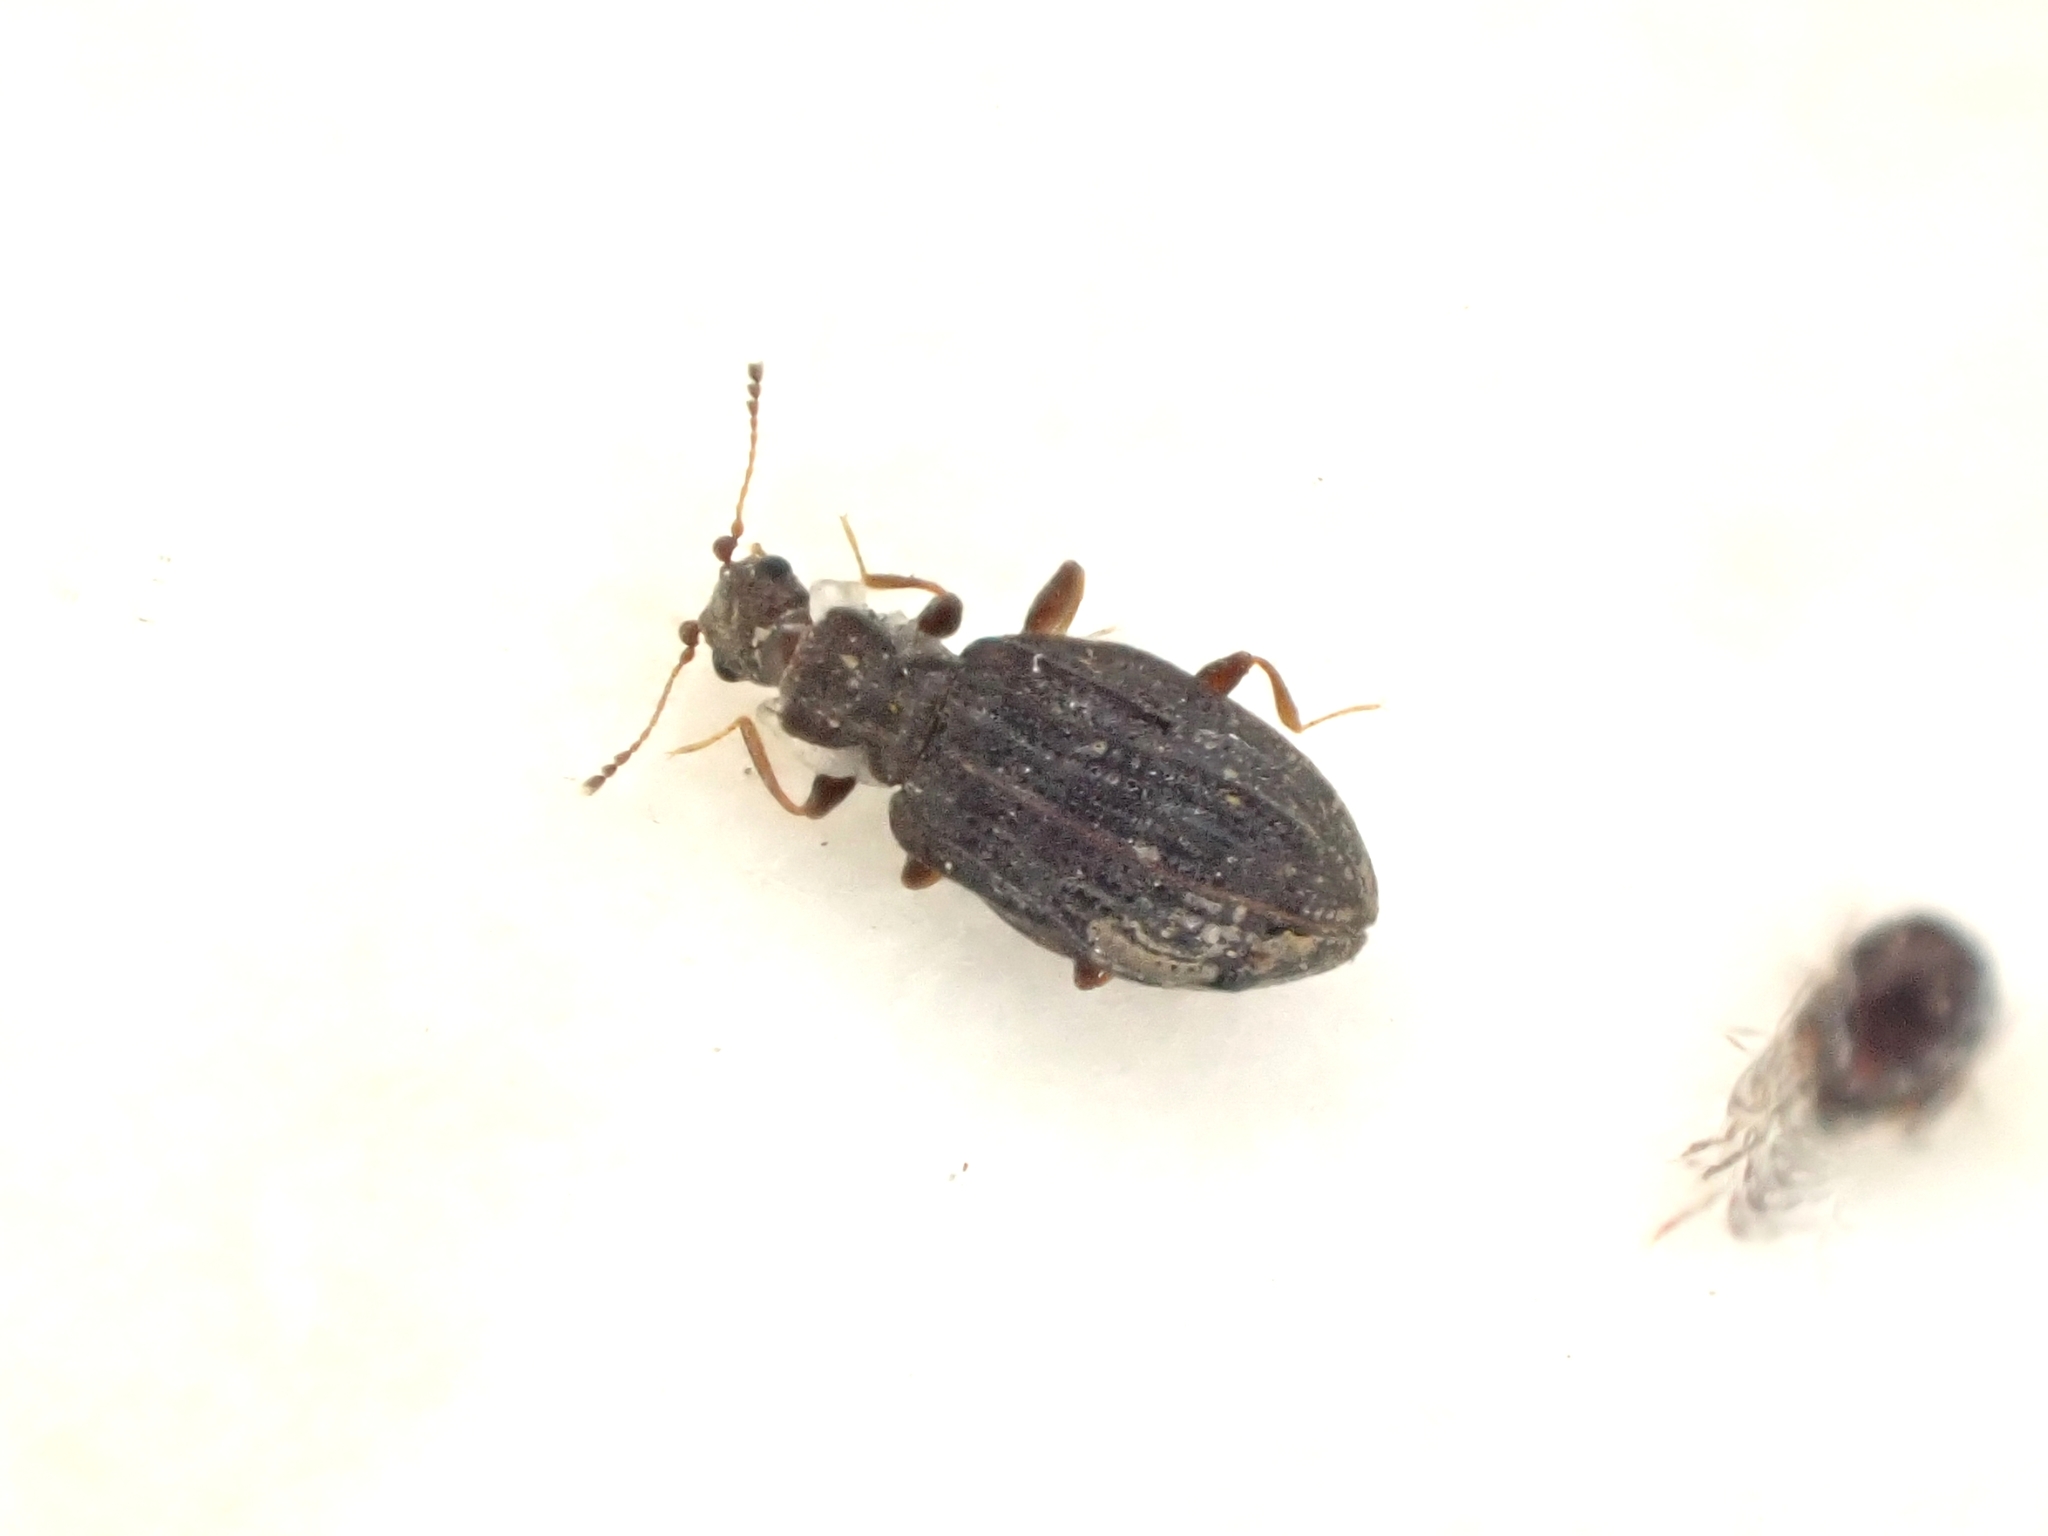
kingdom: Animalia
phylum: Arthropoda
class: Insecta
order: Coleoptera
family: Latridiidae
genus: Cartodere
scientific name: Cartodere nodifer
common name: Humpbacked minute scavenger beetle
